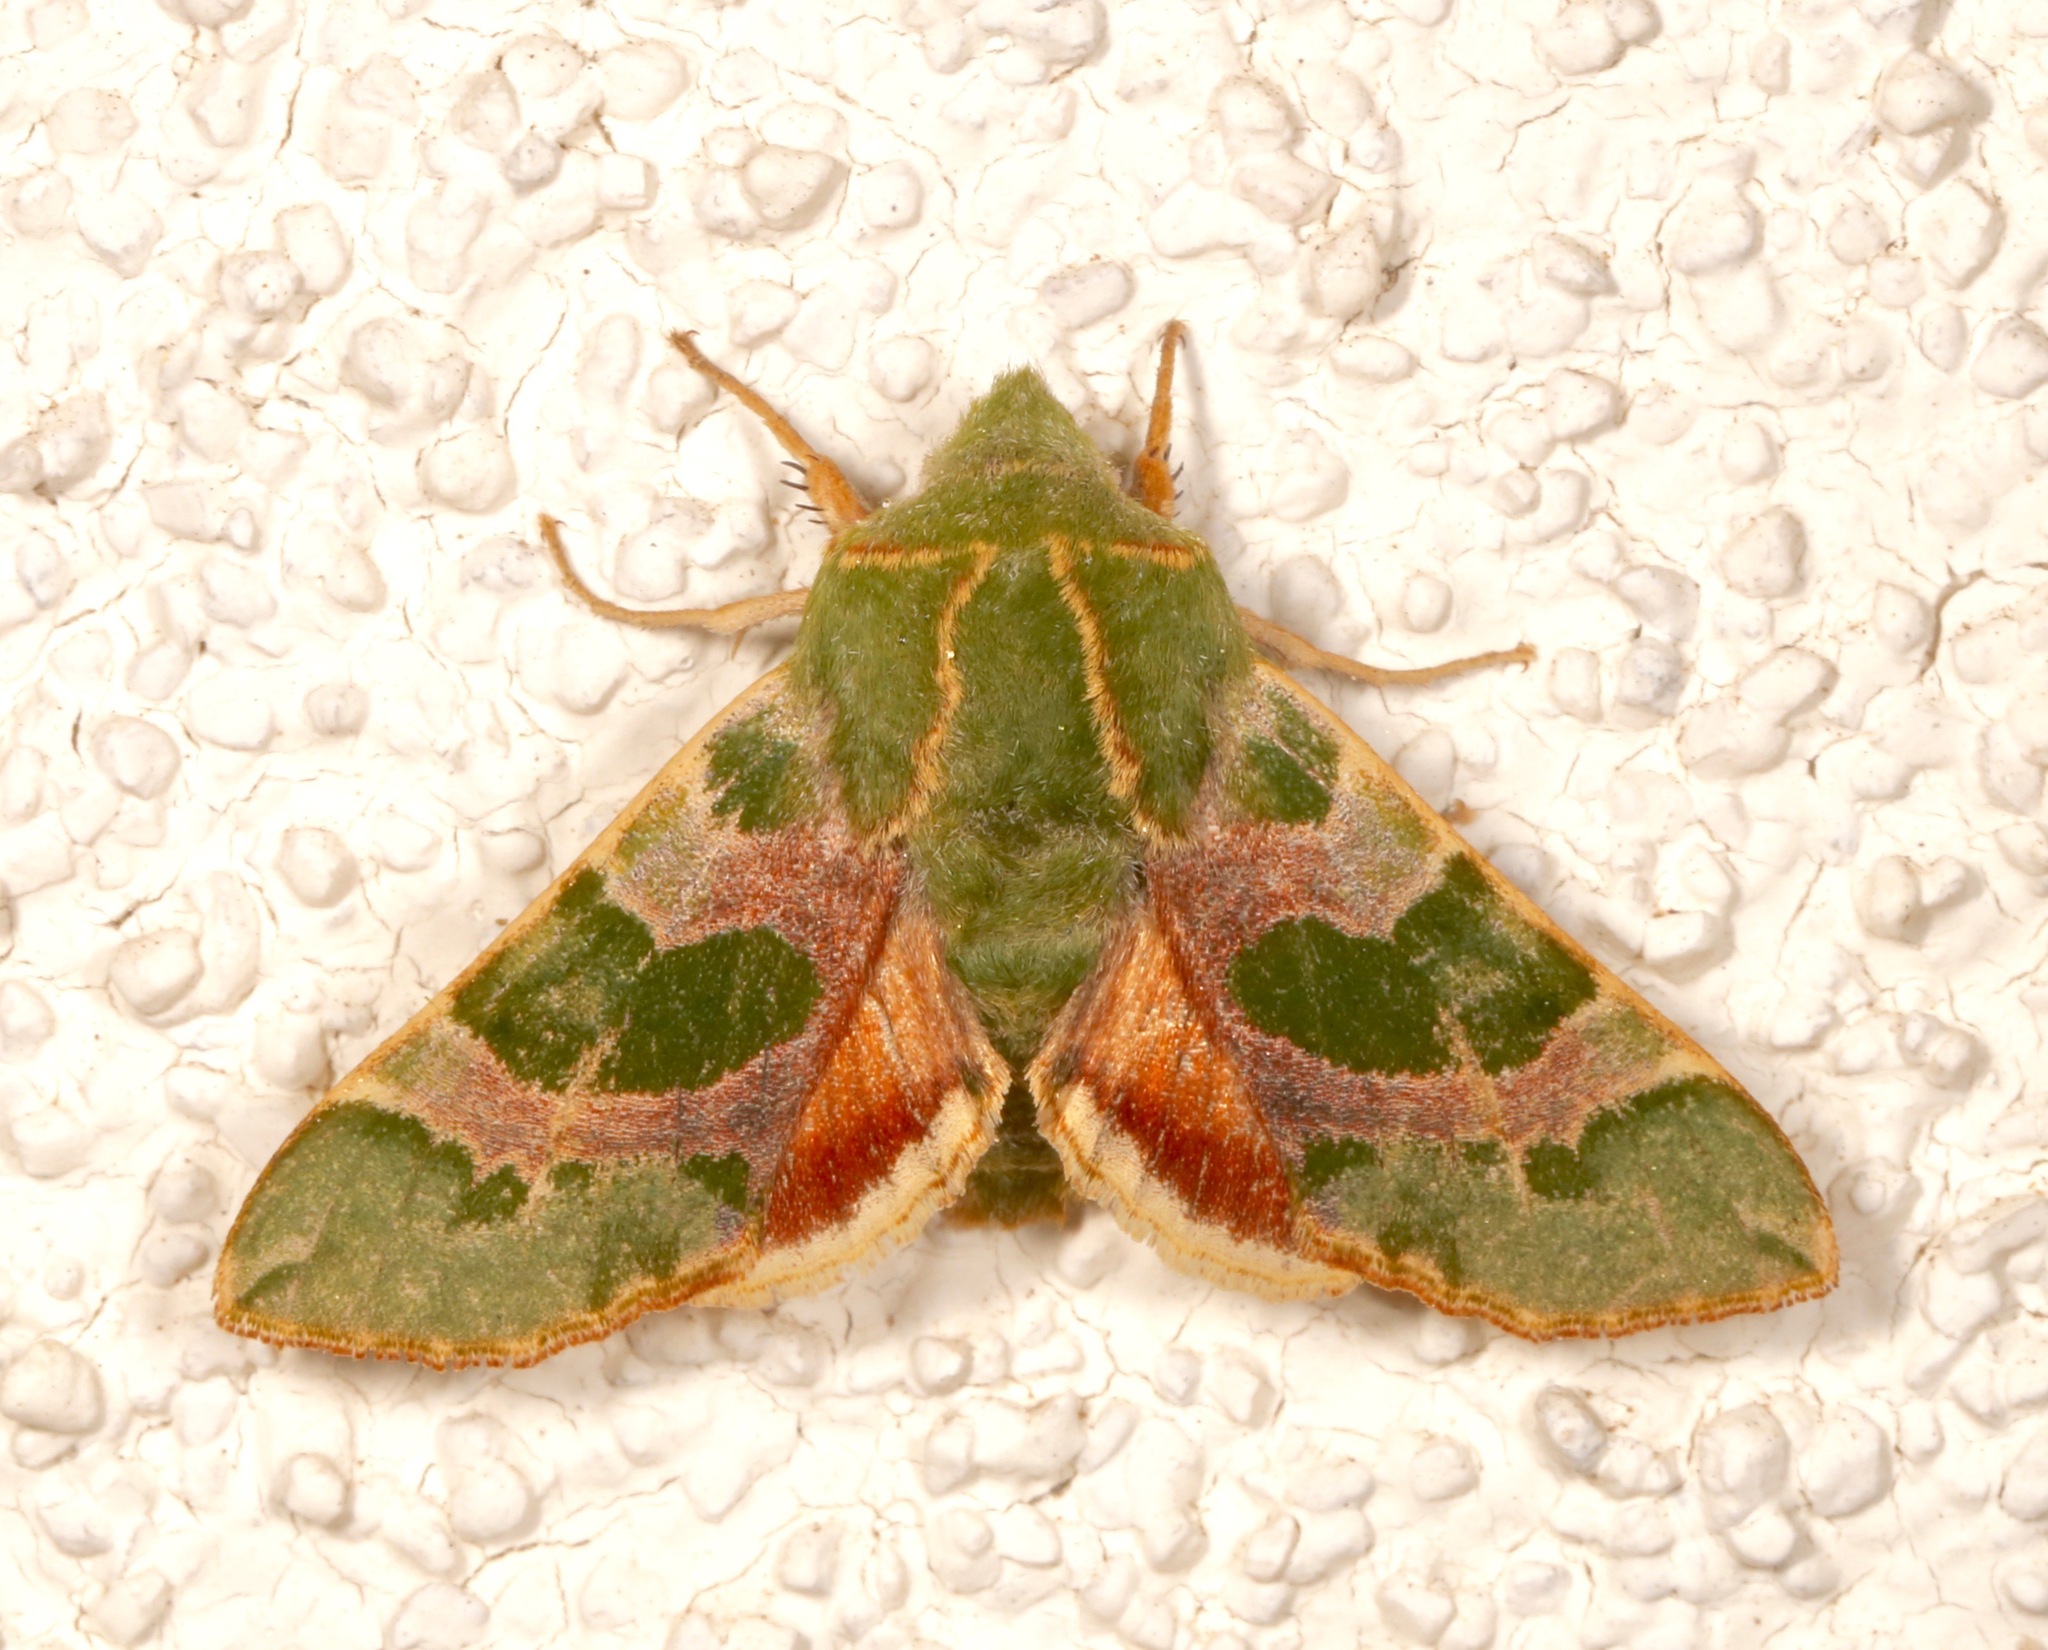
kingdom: Animalia
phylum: Arthropoda
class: Insecta
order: Lepidoptera
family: Sphingidae
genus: Proserpinus
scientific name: Proserpinus lucidus
